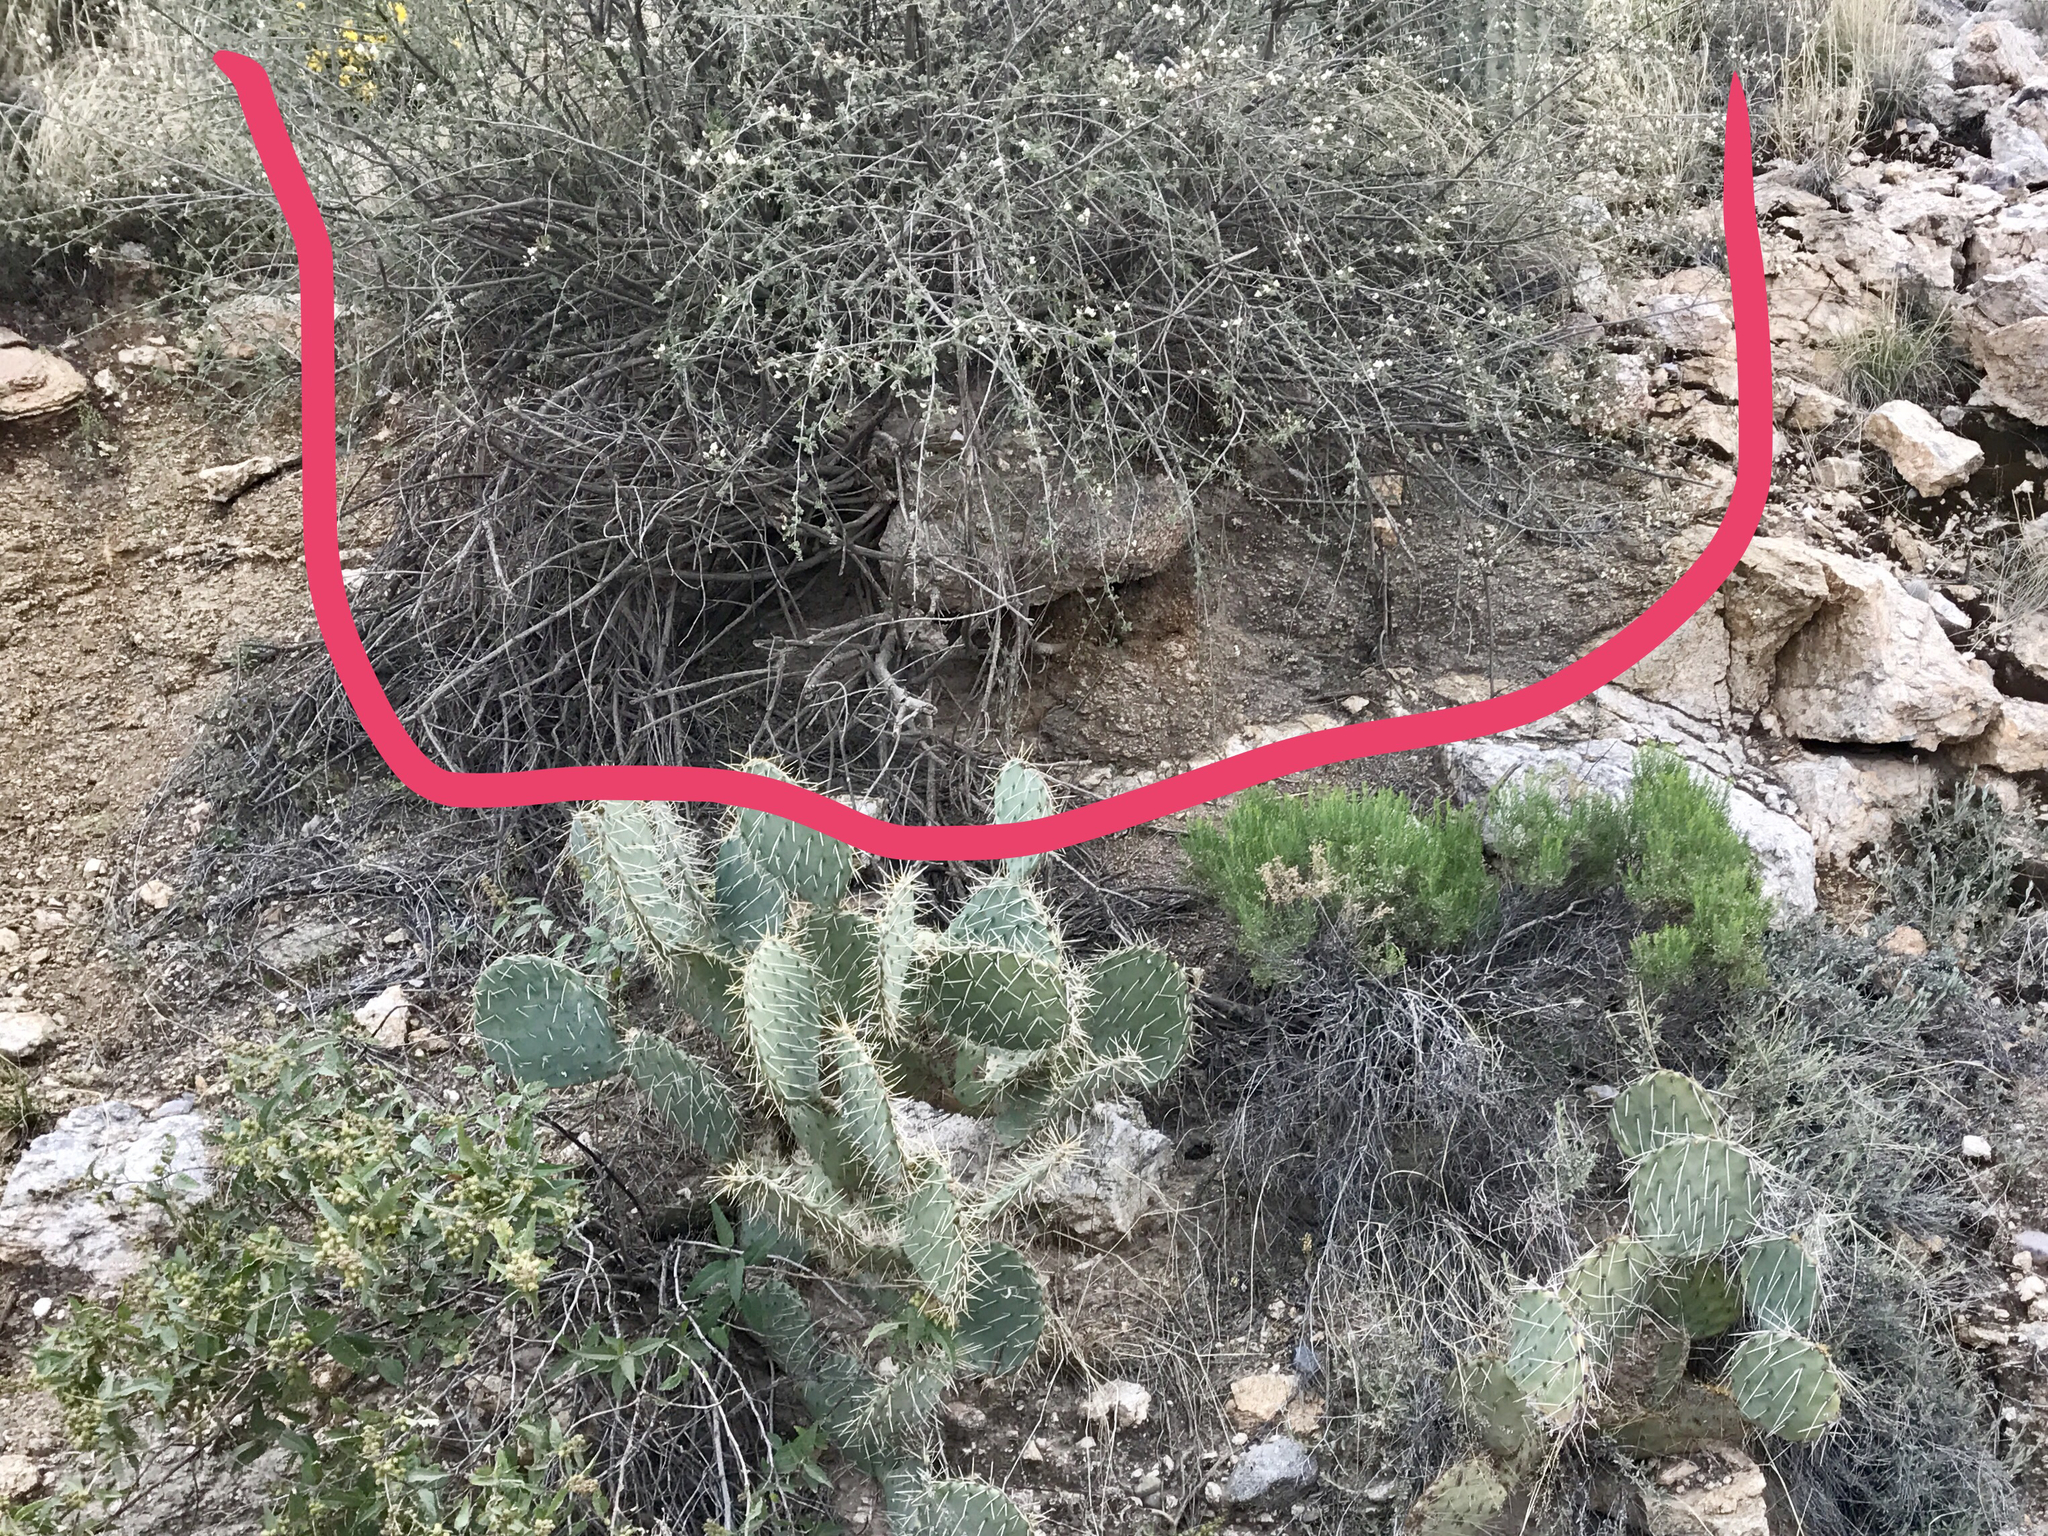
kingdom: Plantae
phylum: Tracheophyta
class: Magnoliopsida
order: Fabales
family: Fabaceae
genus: Coursetia
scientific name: Coursetia glandulosa
